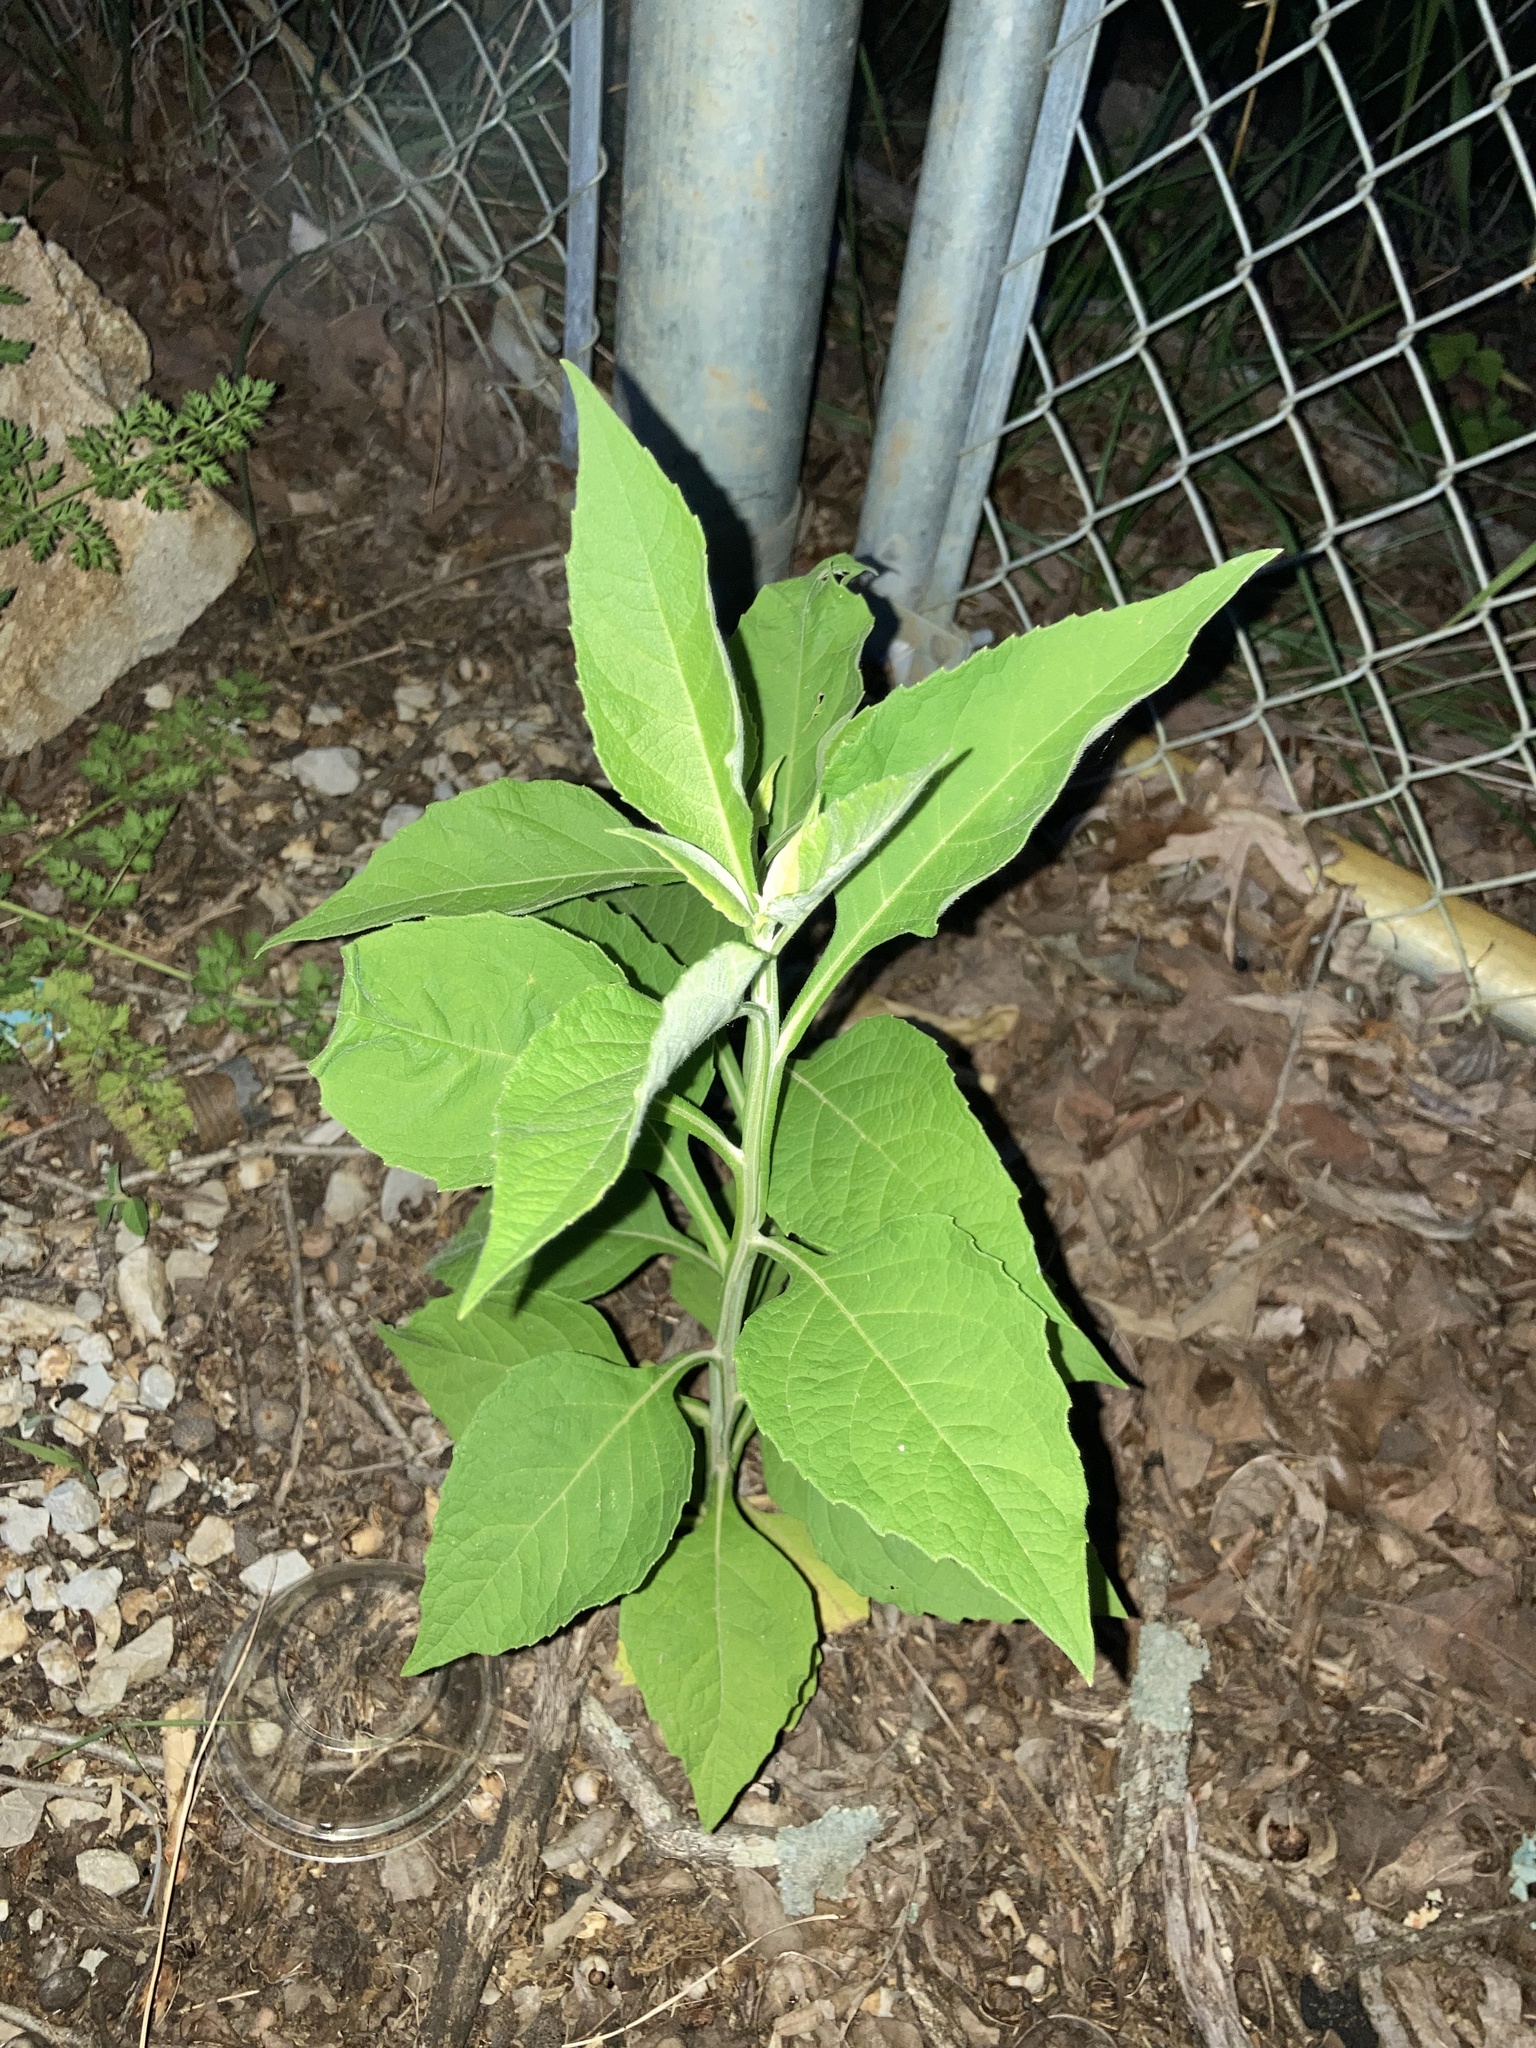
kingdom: Plantae
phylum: Tracheophyta
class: Magnoliopsida
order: Asterales
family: Asteraceae
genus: Verbesina
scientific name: Verbesina virginica
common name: Frostweed
